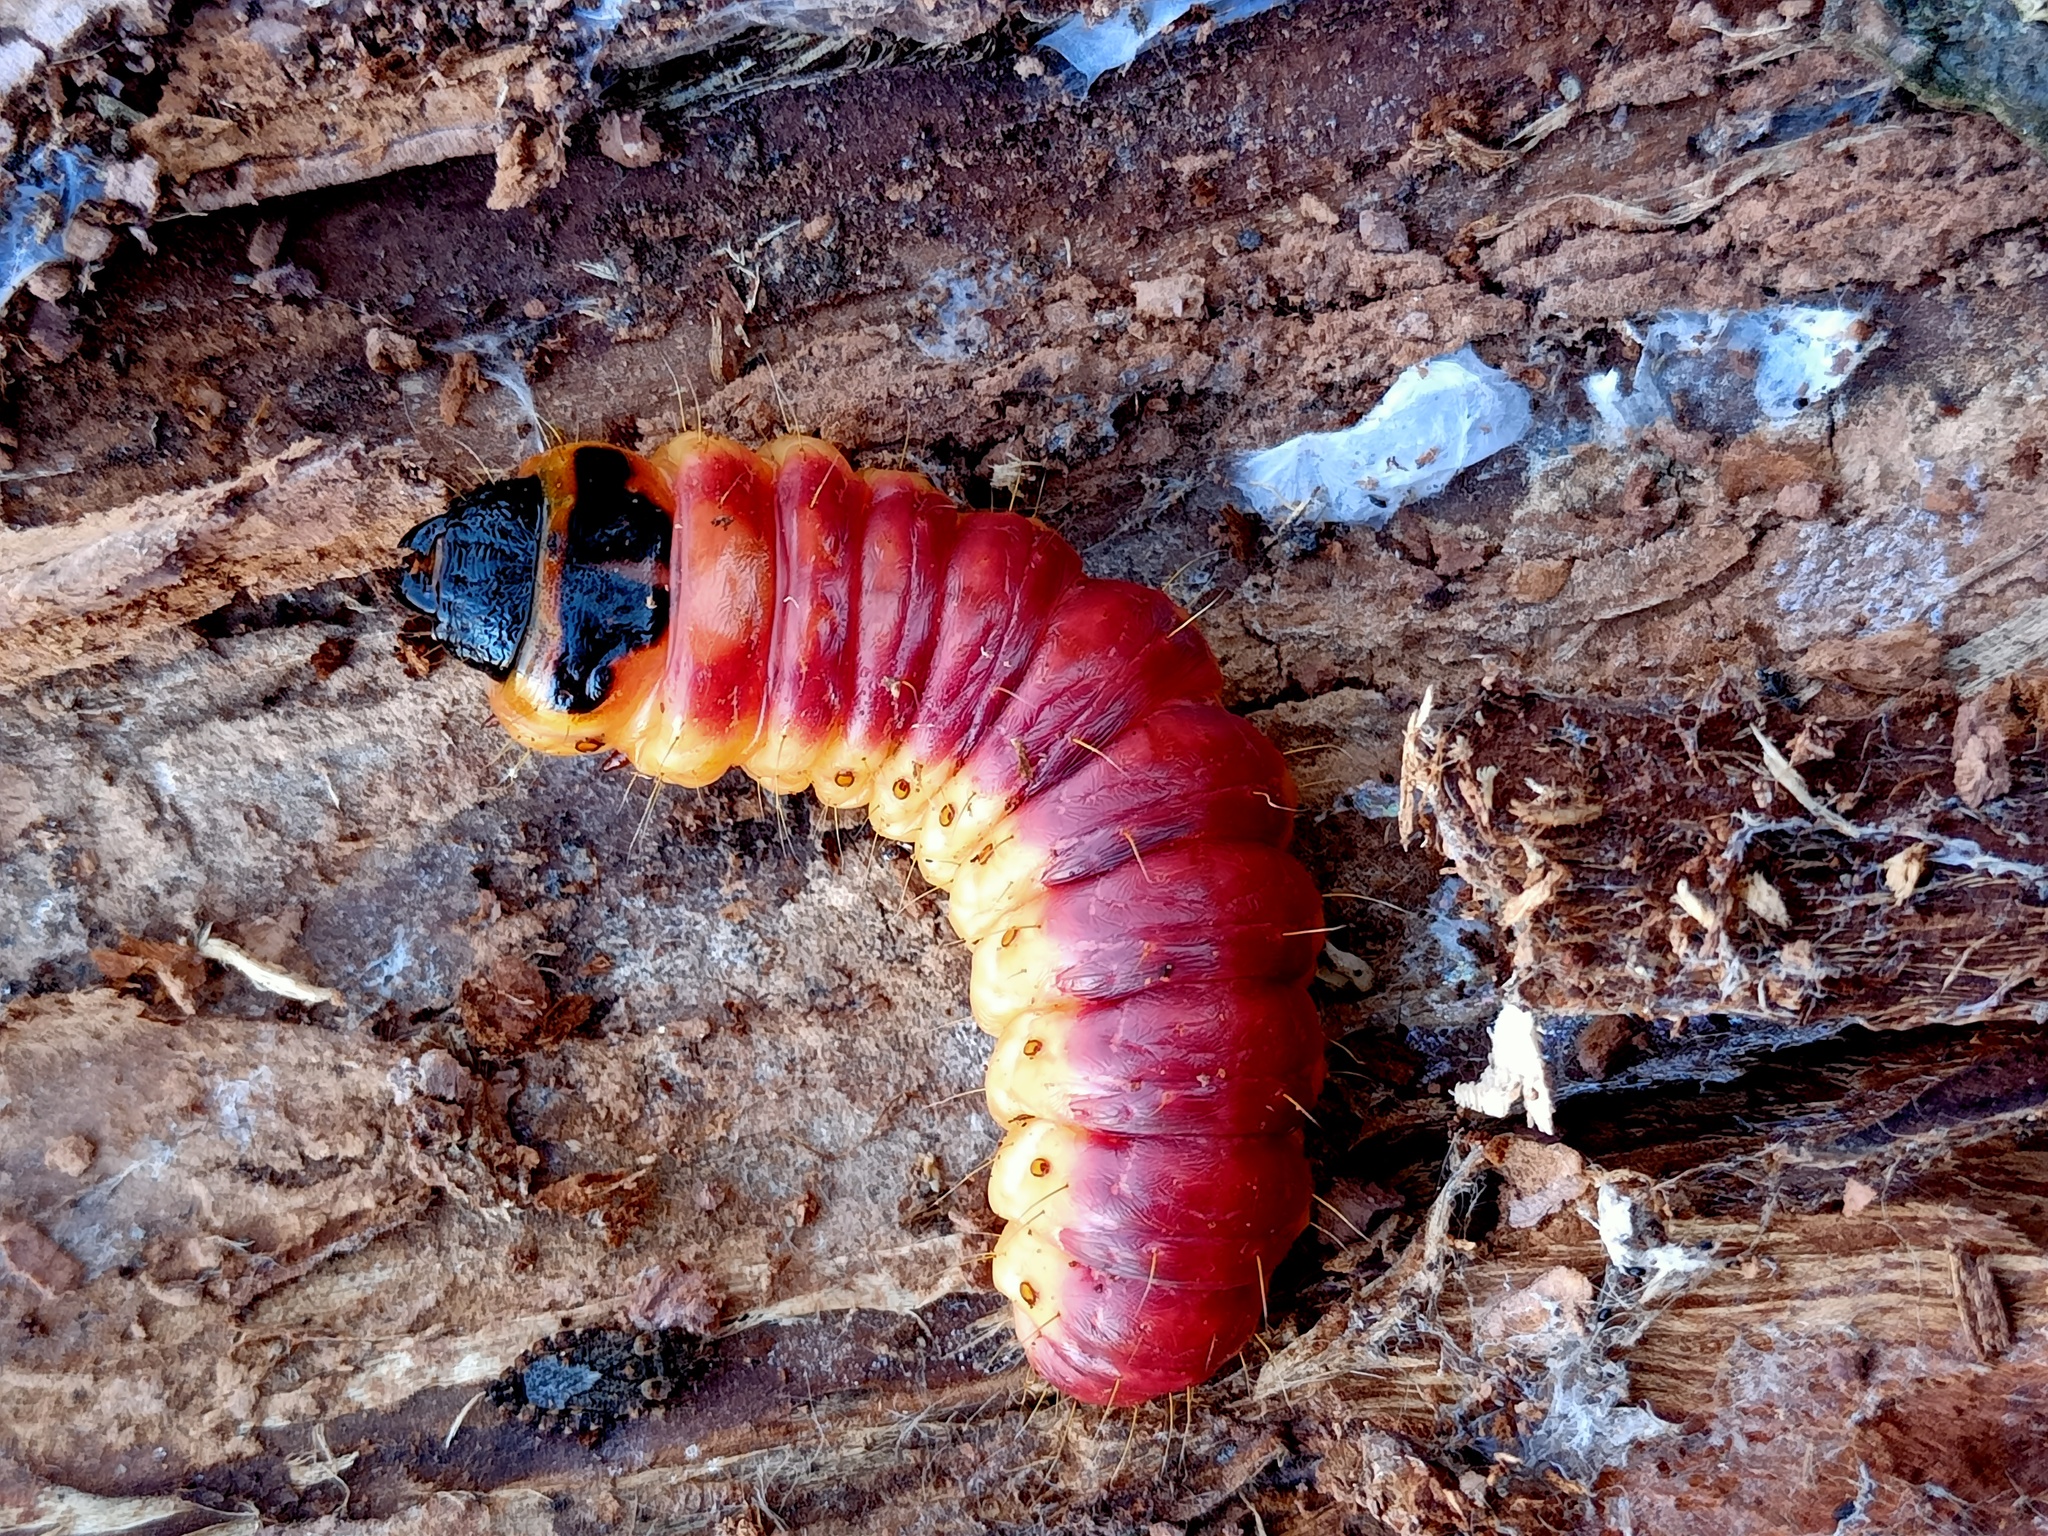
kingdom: Animalia
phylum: Arthropoda
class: Insecta
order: Lepidoptera
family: Cossidae
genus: Cossus
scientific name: Cossus cossus
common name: Goat moth
